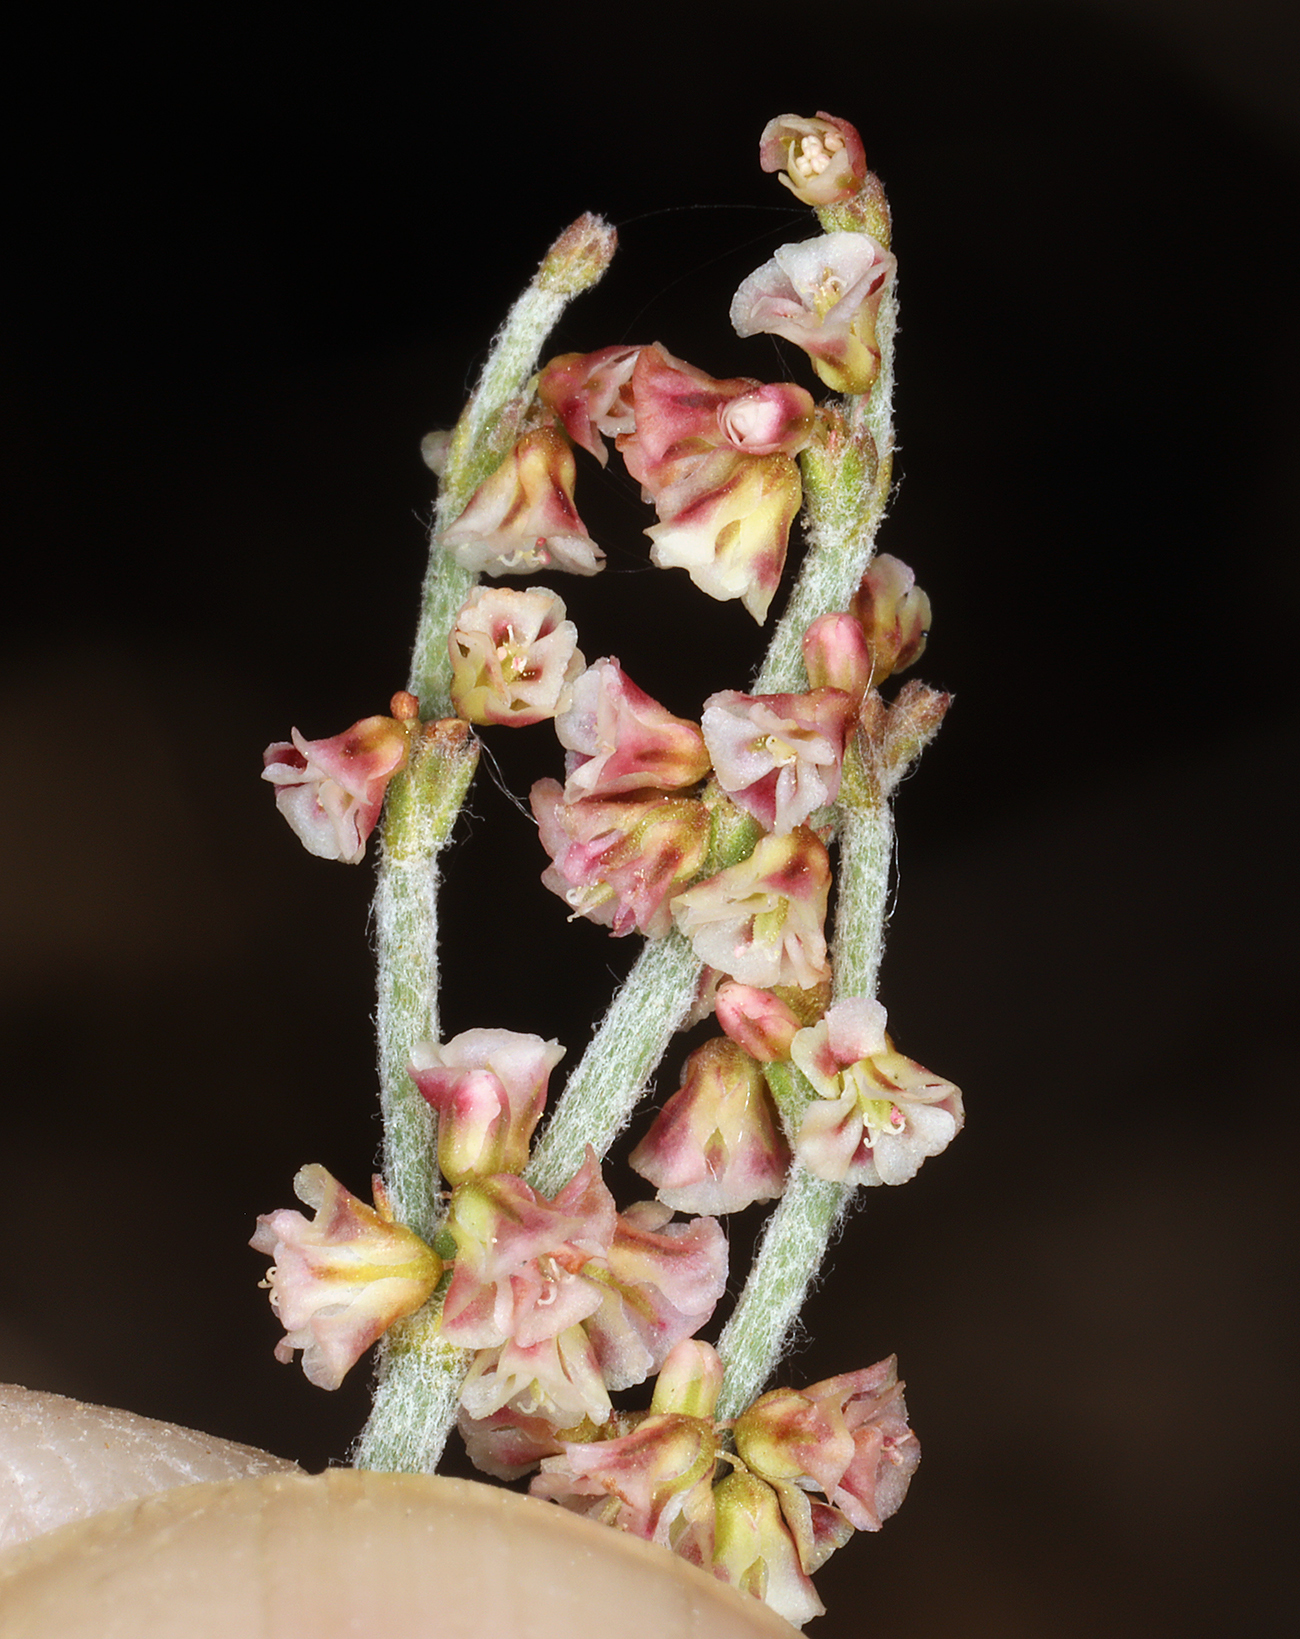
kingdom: Plantae
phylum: Tracheophyta
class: Magnoliopsida
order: Caryophyllales
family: Polygonaceae
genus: Eriogonum
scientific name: Eriogonum nidularium
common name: Bird's-nest wild buckwheat
